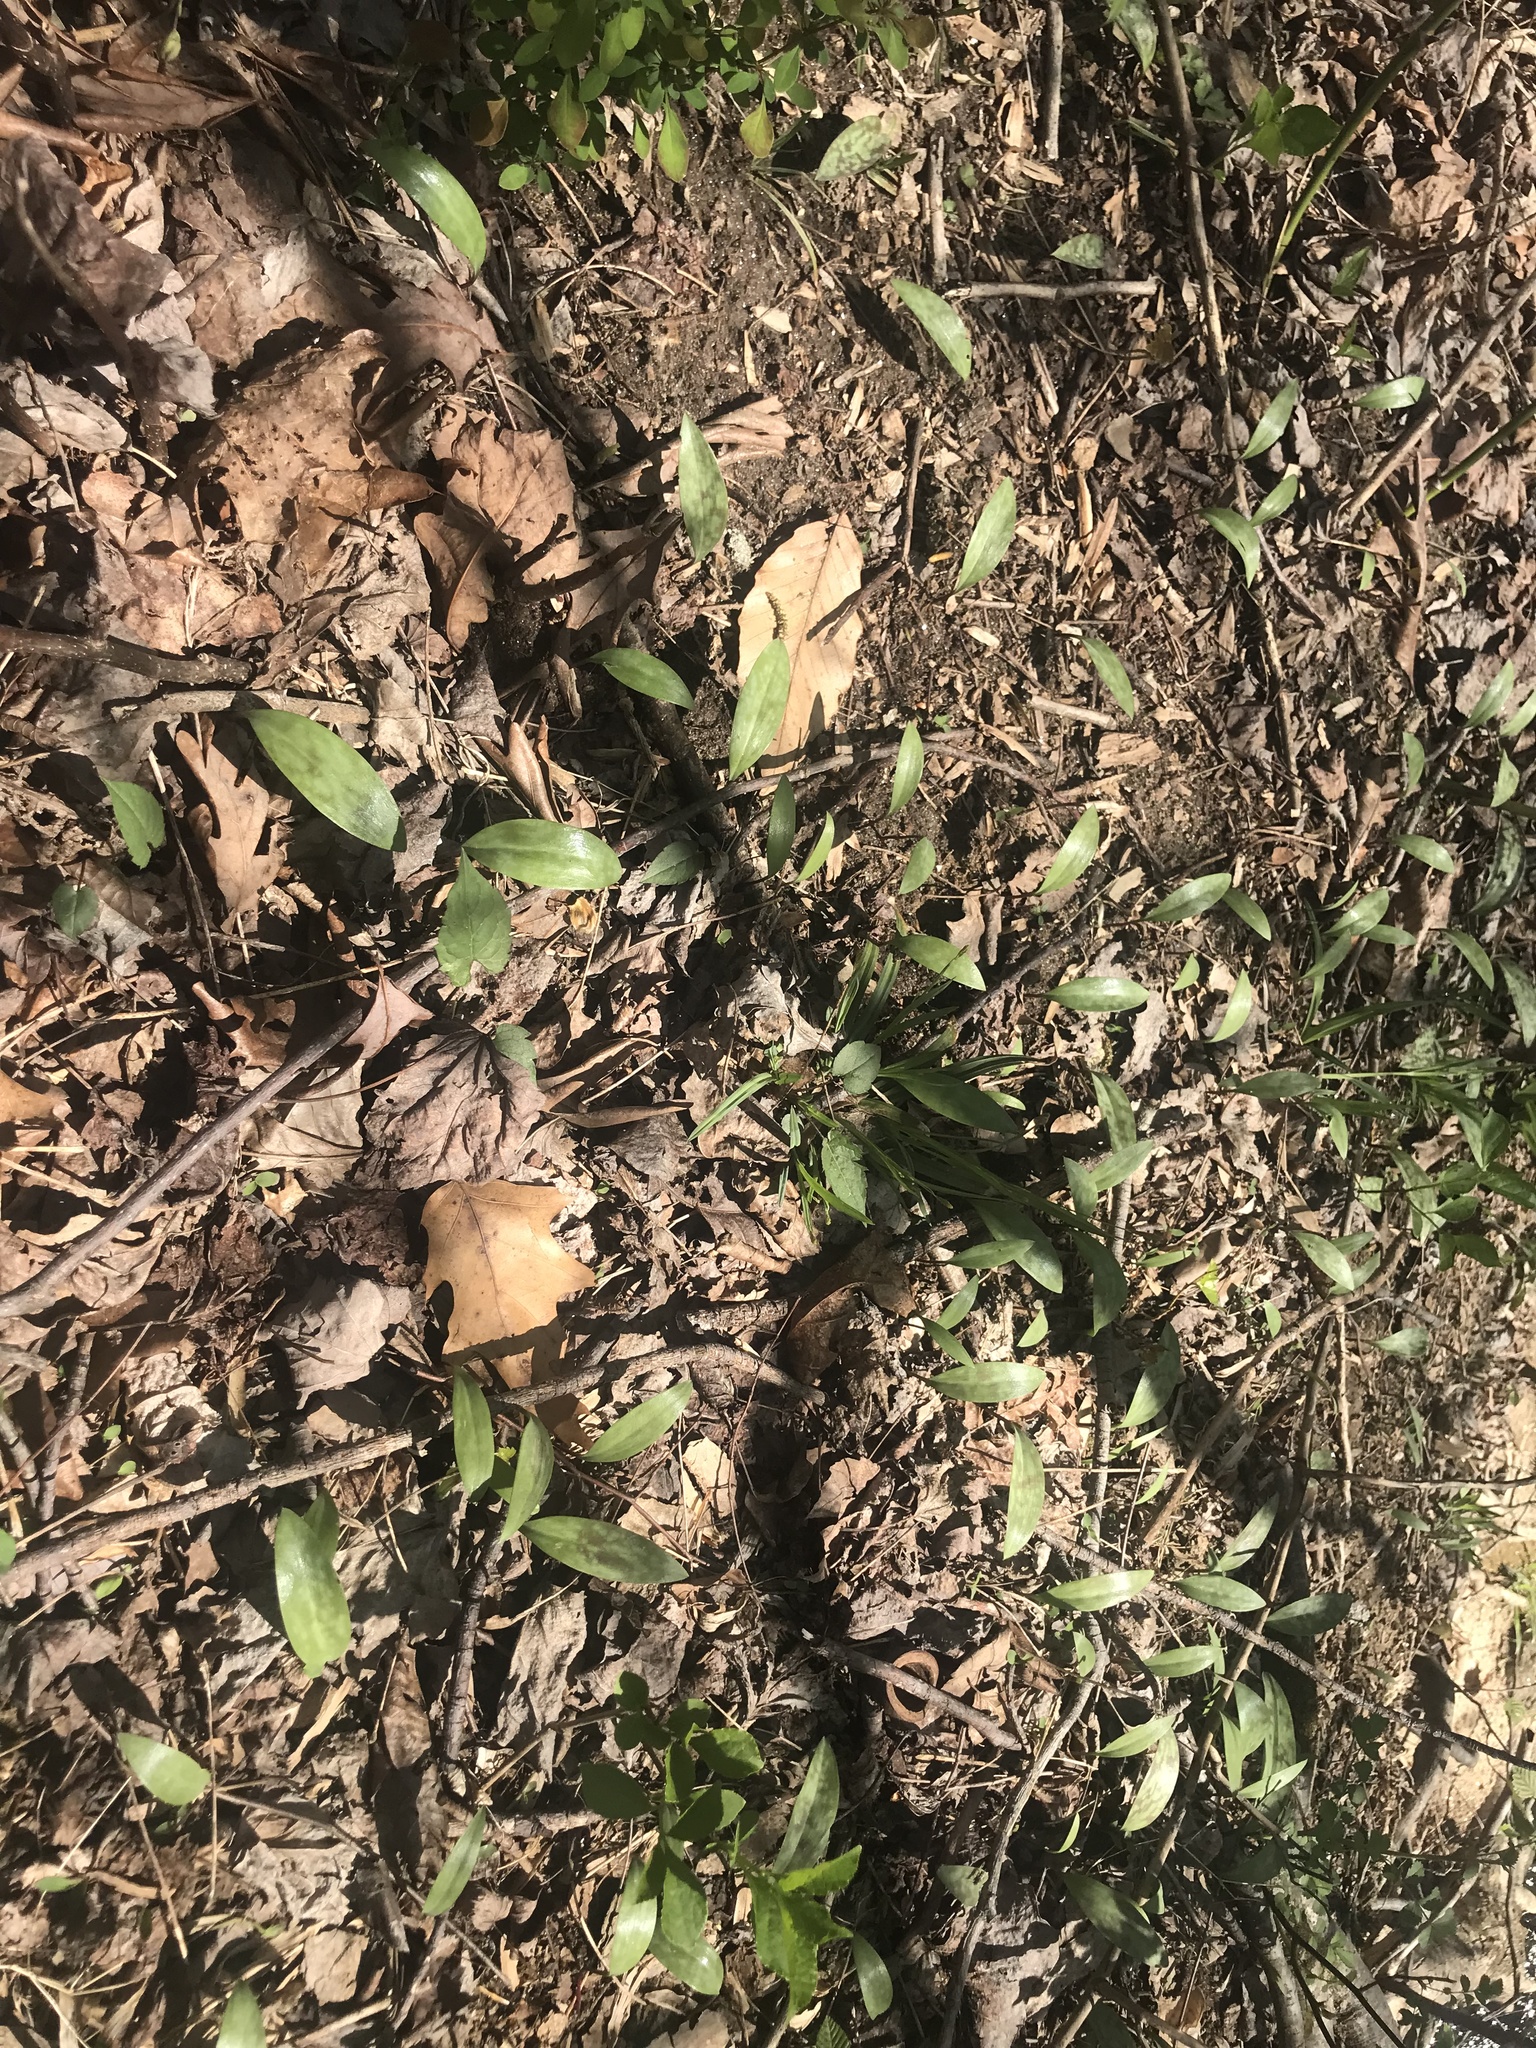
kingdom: Plantae
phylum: Tracheophyta
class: Liliopsida
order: Liliales
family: Liliaceae
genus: Erythronium
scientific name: Erythronium americanum
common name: Yellow adder's-tongue
